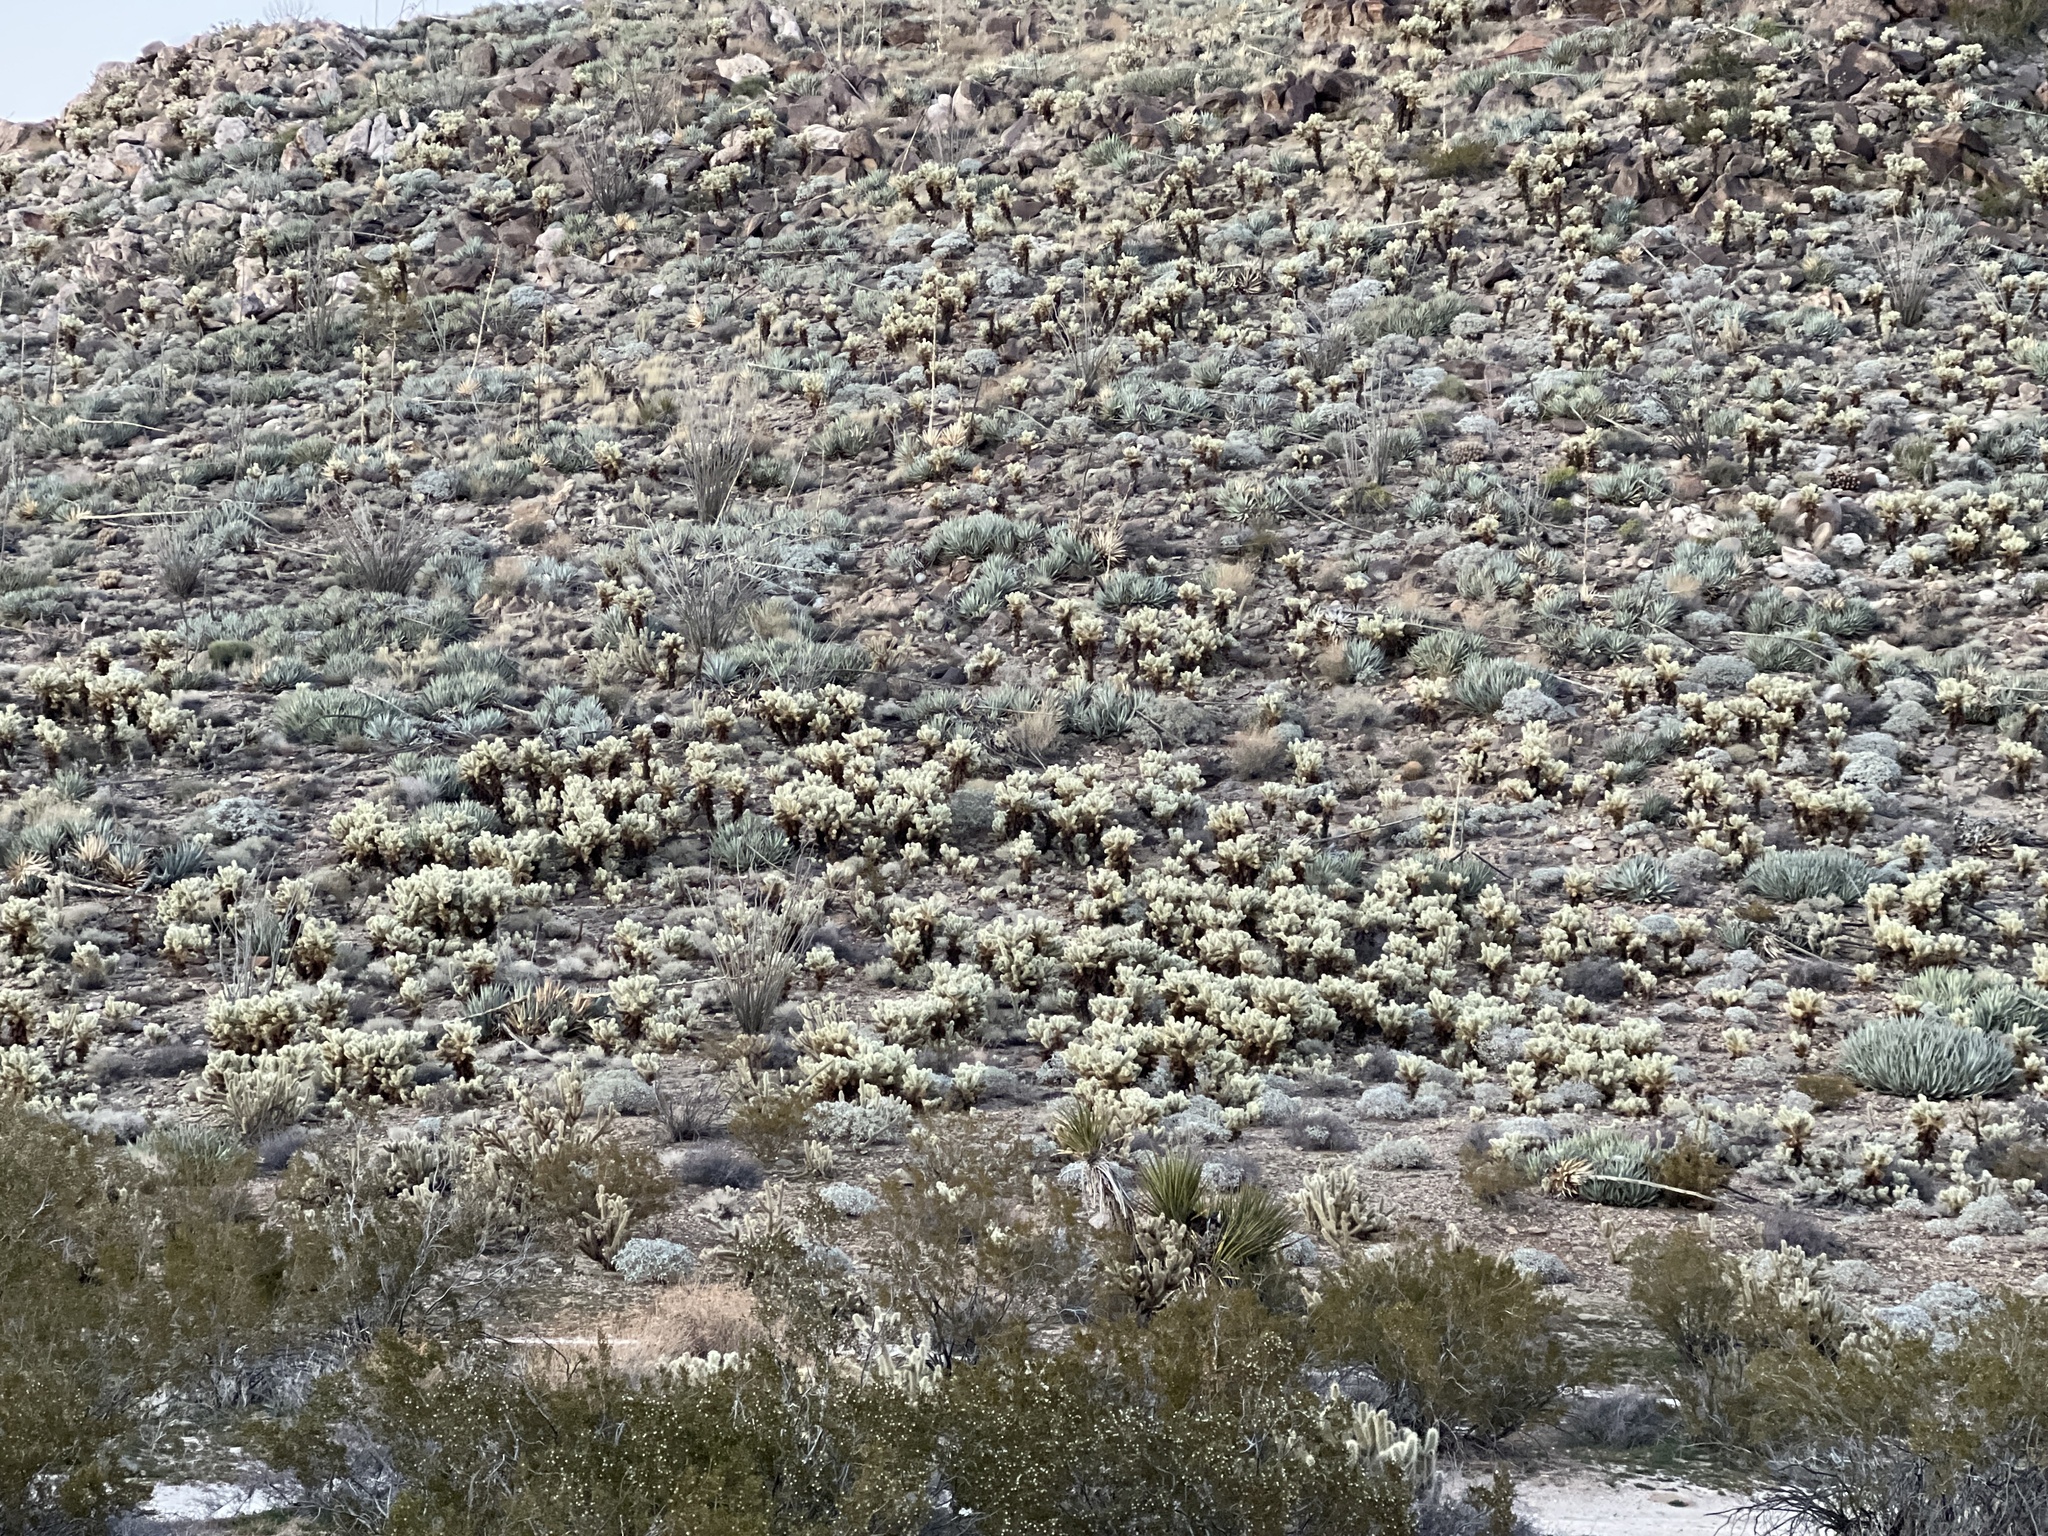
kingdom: Plantae
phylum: Tracheophyta
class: Magnoliopsida
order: Caryophyllales
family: Cactaceae
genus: Cylindropuntia
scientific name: Cylindropuntia fosbergii
